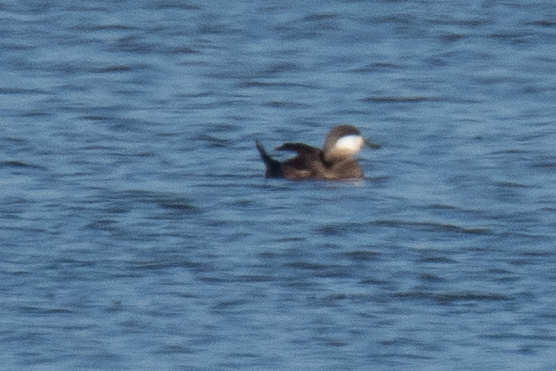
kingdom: Animalia
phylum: Chordata
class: Aves
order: Anseriformes
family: Anatidae
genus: Oxyura
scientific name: Oxyura jamaicensis
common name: Ruddy duck
